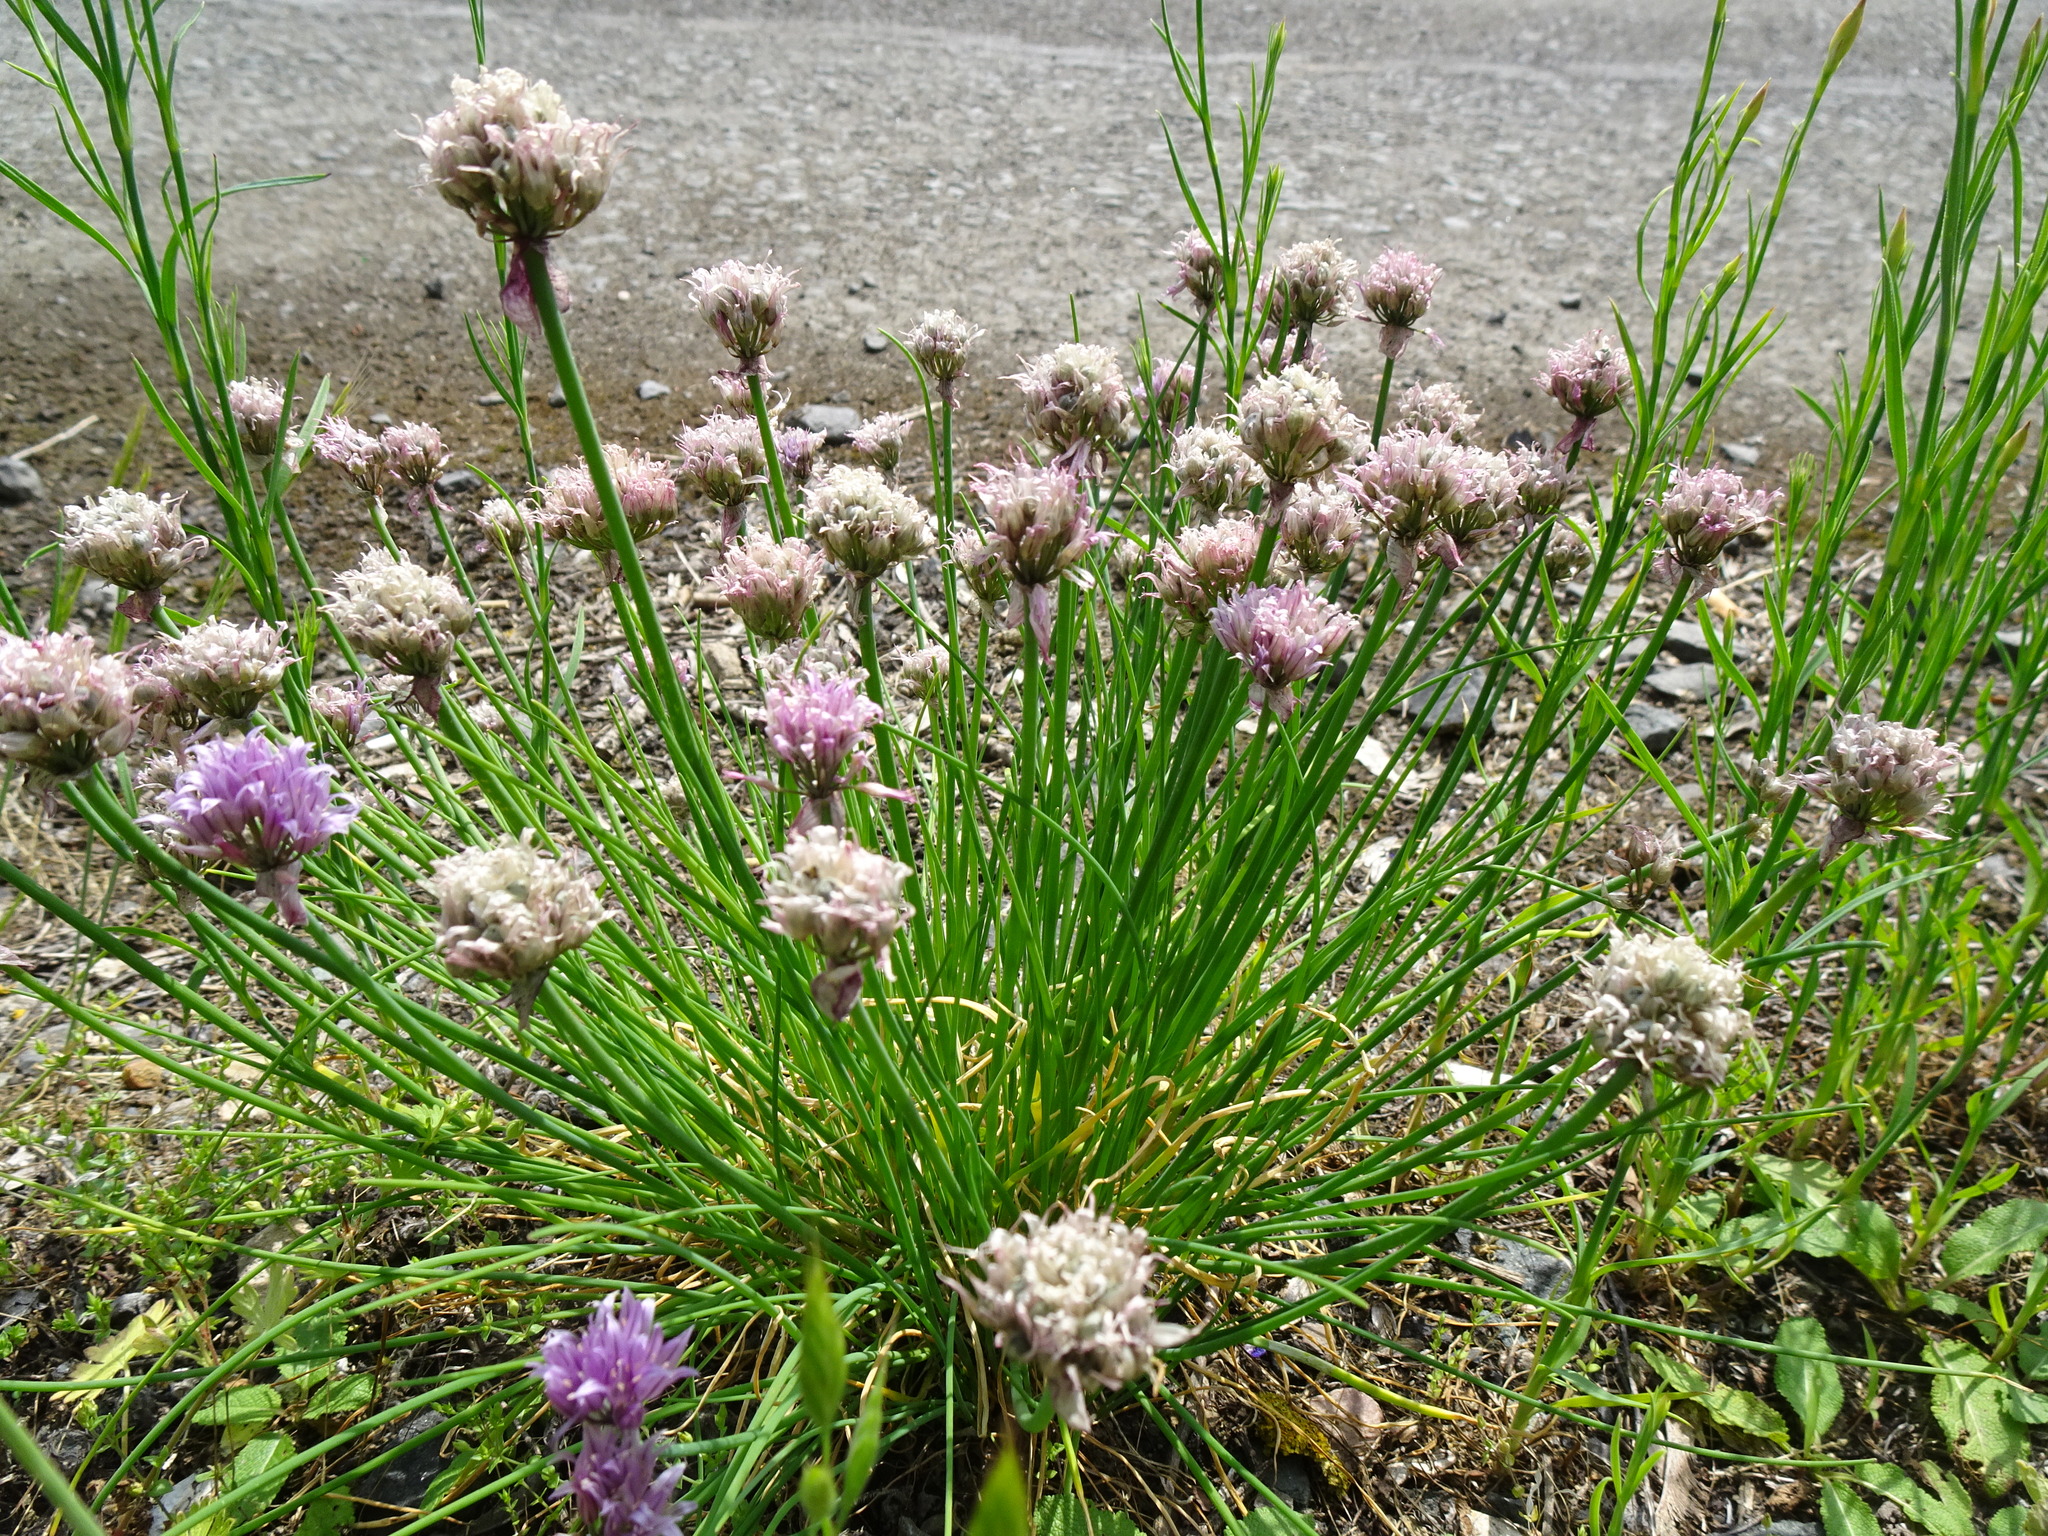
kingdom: Plantae
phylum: Tracheophyta
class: Liliopsida
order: Asparagales
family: Amaryllidaceae
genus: Allium
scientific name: Allium schoenoprasum
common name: Chives
